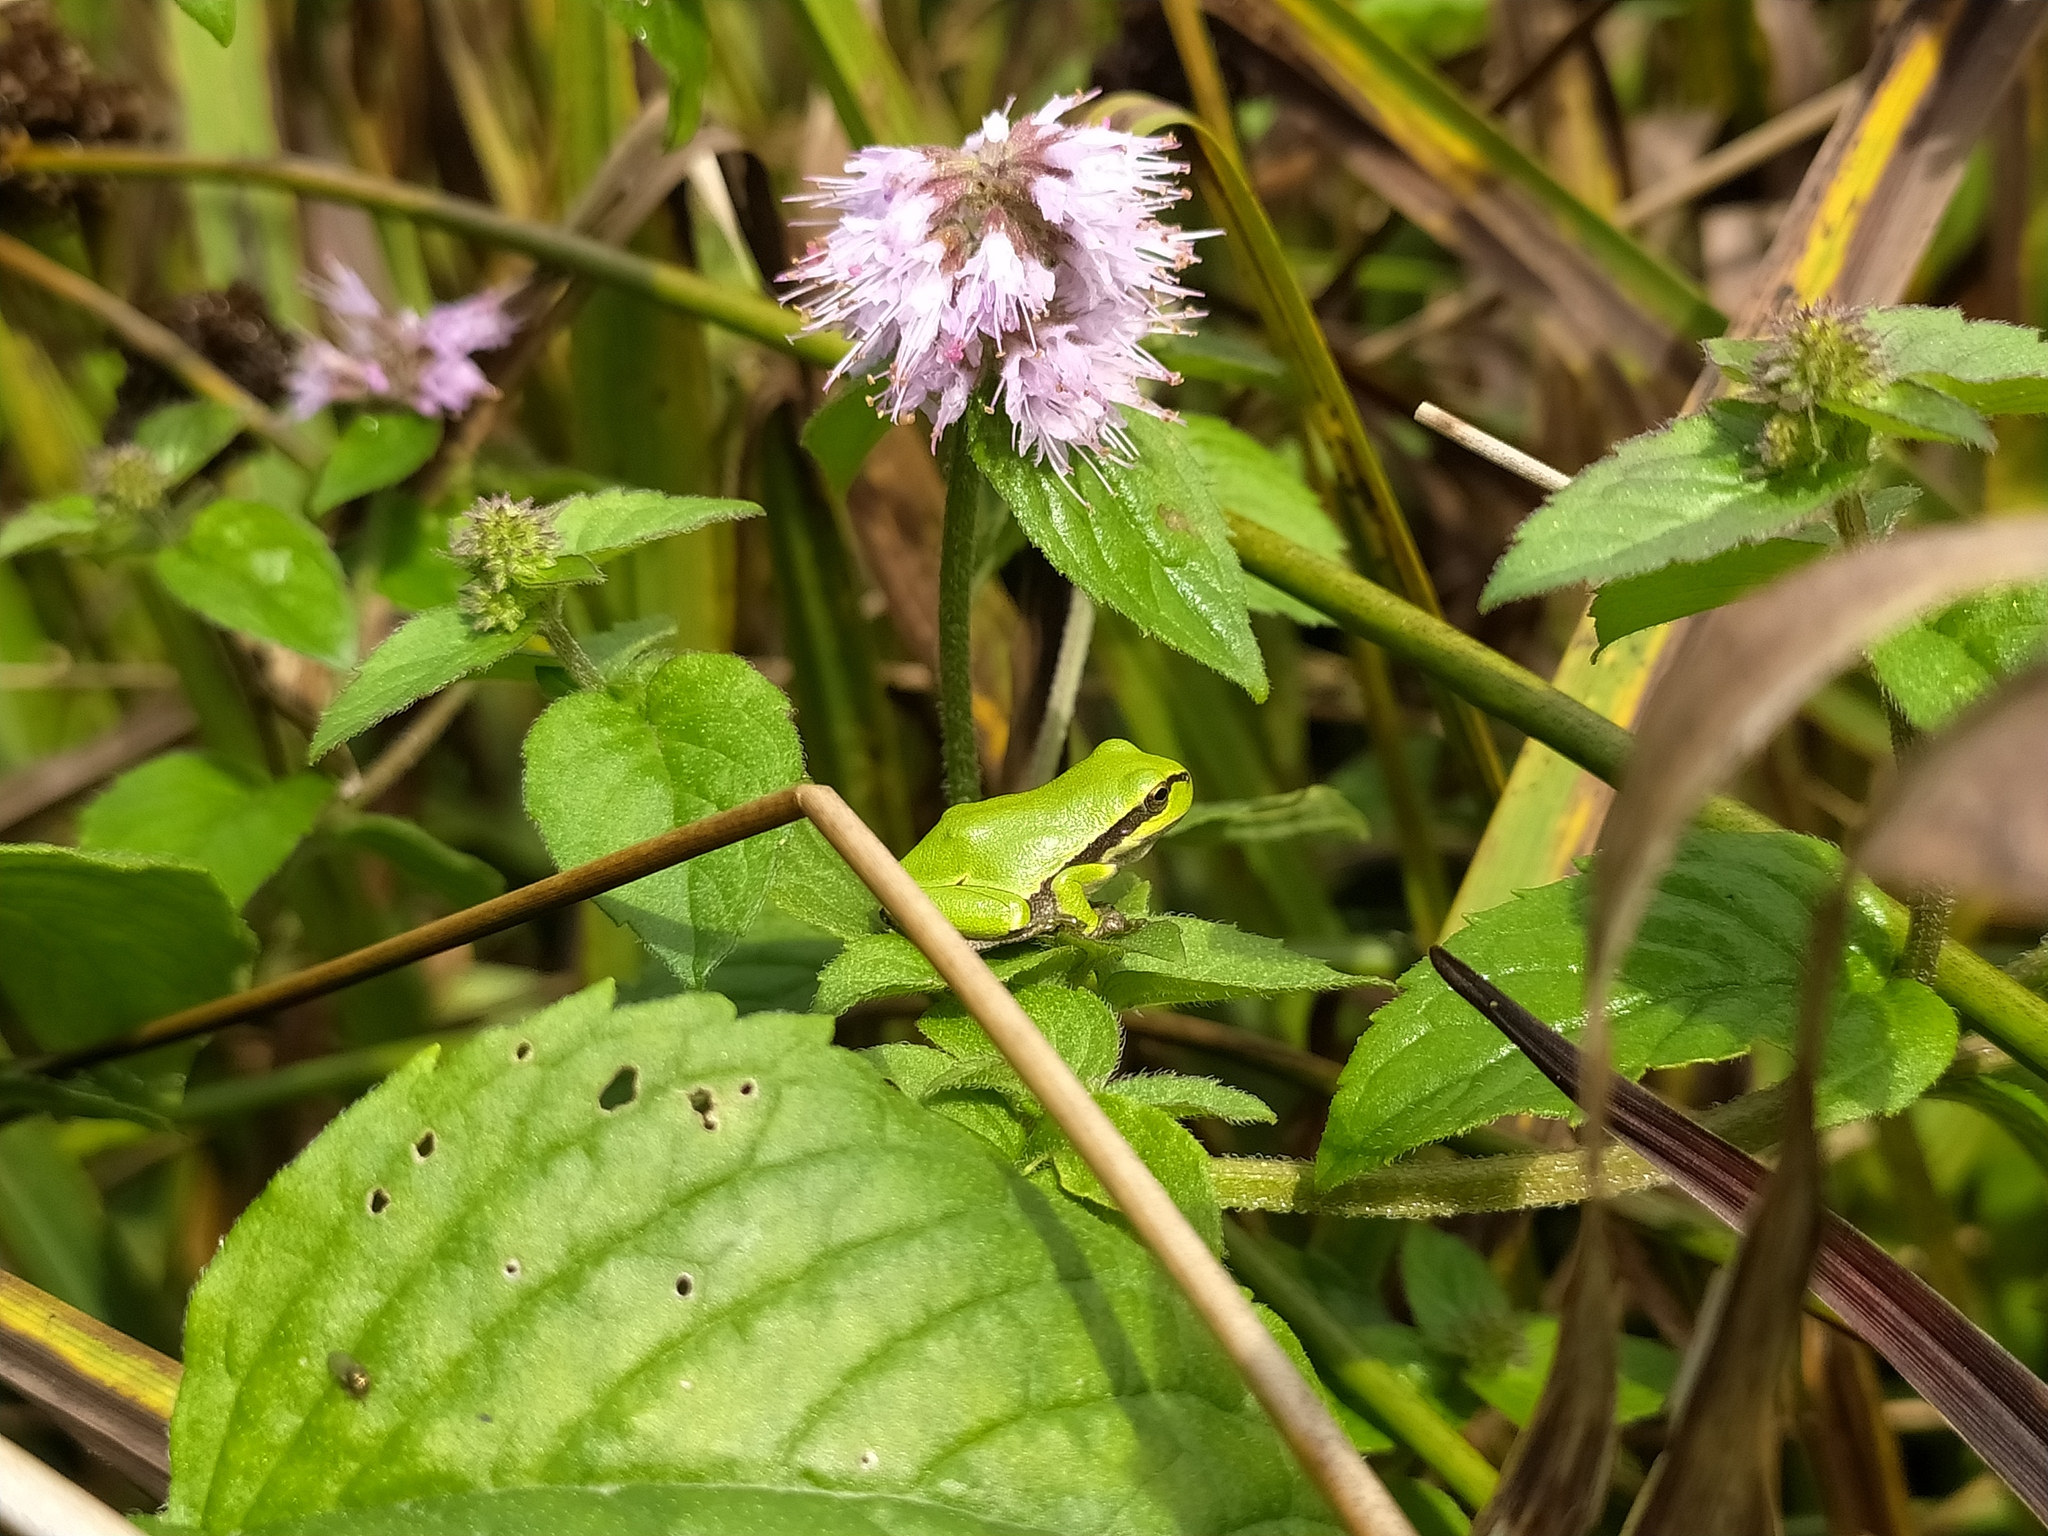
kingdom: Animalia
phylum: Chordata
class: Amphibia
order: Anura
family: Hylidae
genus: Hyla
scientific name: Hyla arborea
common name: Common tree frog
